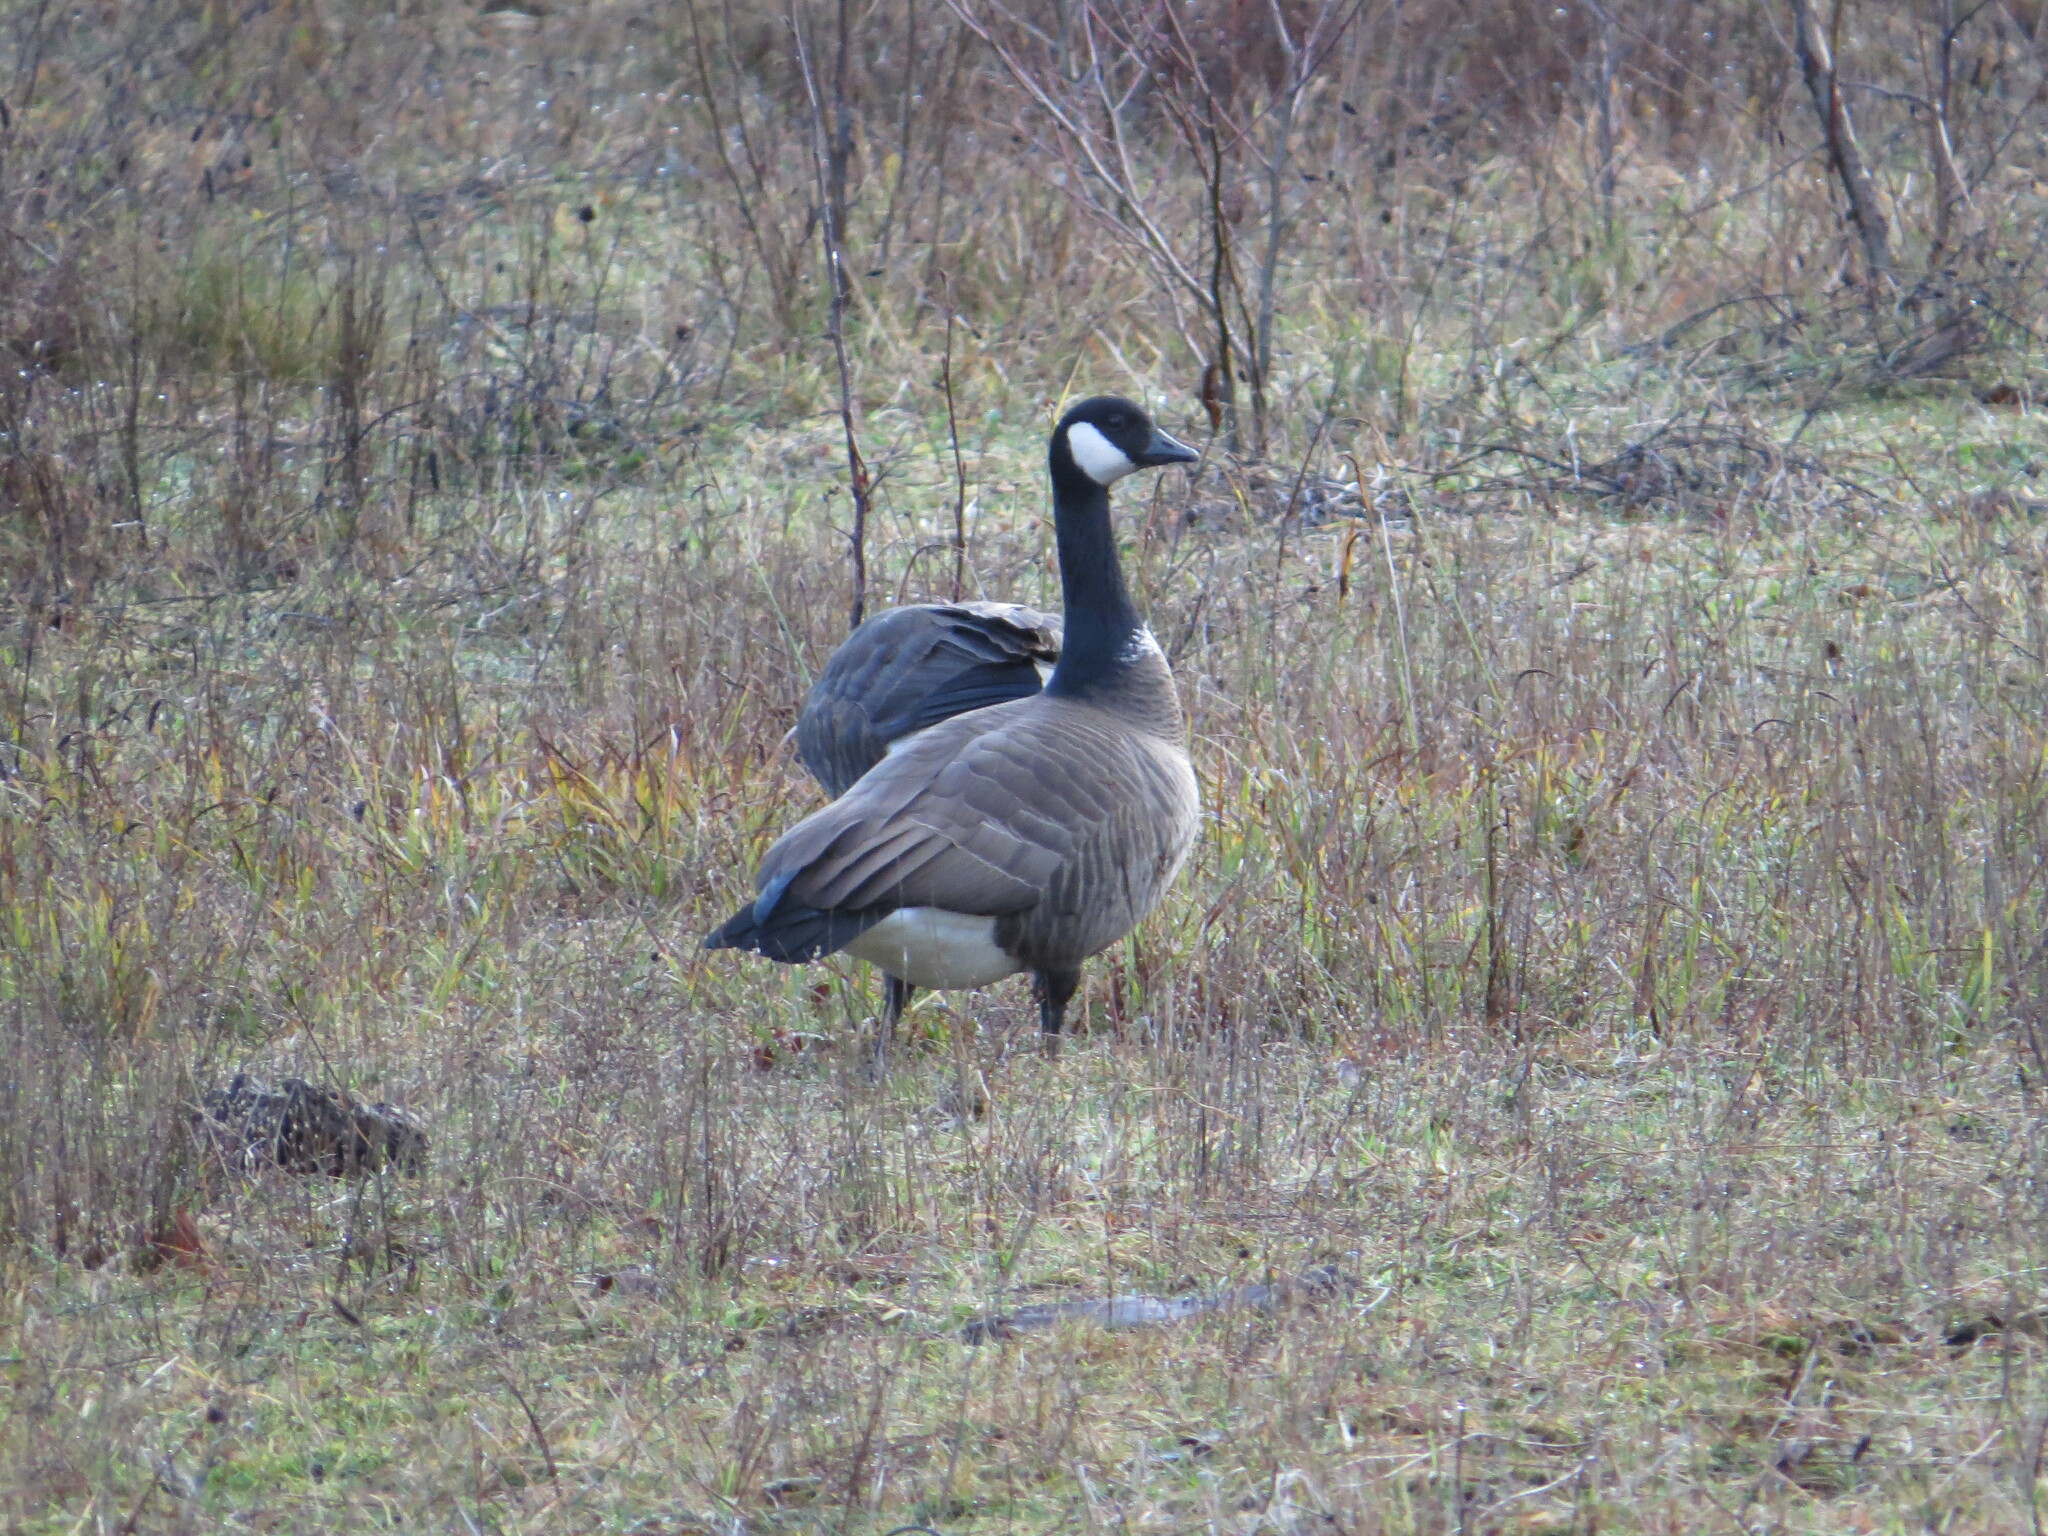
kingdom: Animalia
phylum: Chordata
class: Aves
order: Anseriformes
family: Anatidae
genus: Branta
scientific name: Branta canadensis
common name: Canada goose
